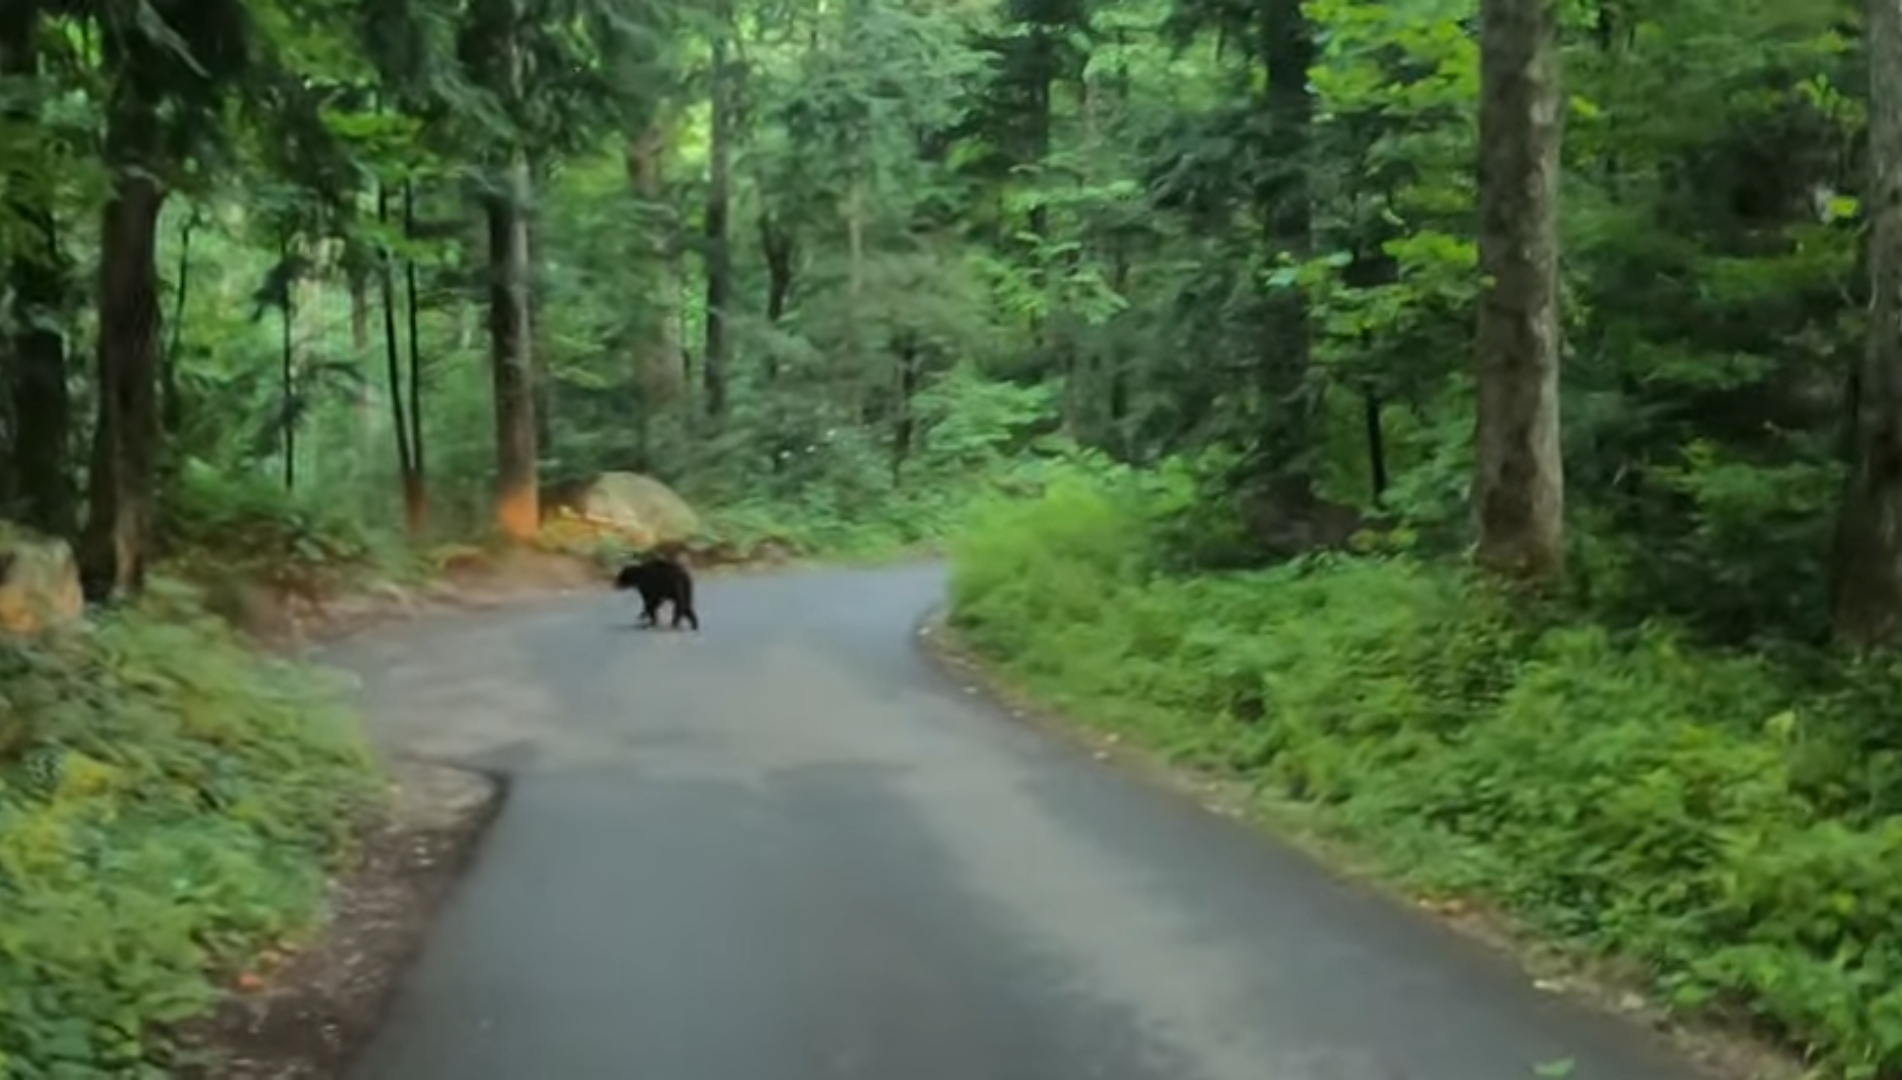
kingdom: Animalia
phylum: Chordata
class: Mammalia
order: Carnivora
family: Ursidae
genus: Ursus
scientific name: Ursus americanus
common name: American black bear
